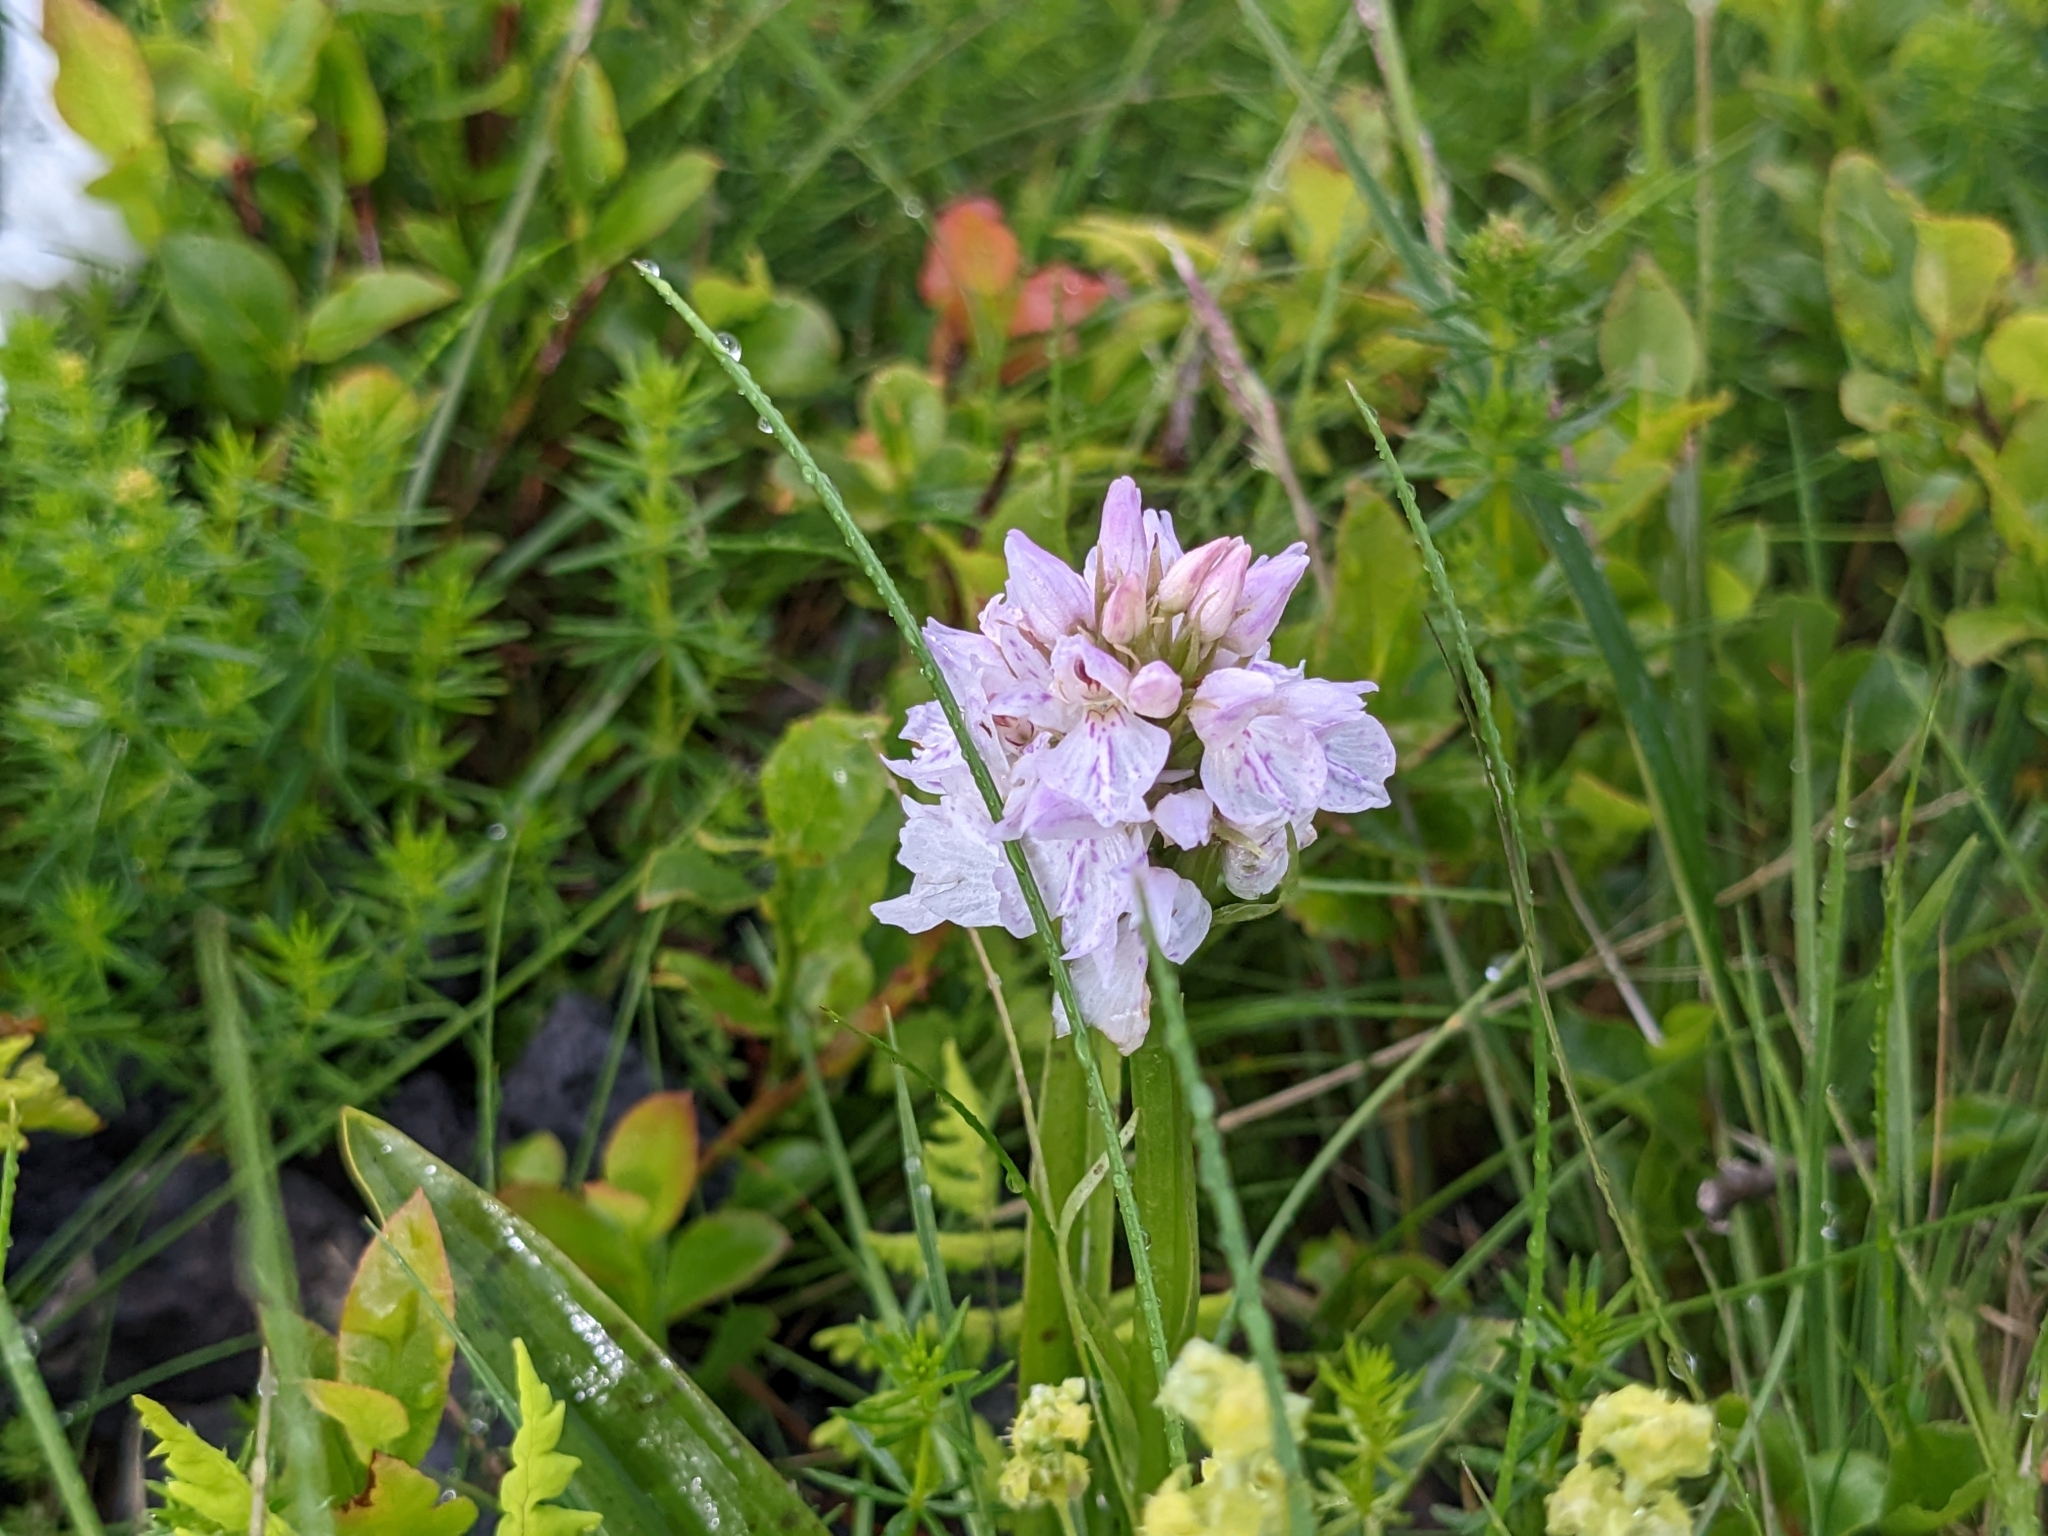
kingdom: Plantae
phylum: Tracheophyta
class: Liliopsida
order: Asparagales
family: Orchidaceae
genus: Dactylorhiza
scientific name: Dactylorhiza maculata
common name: Heath spotted-orchid
